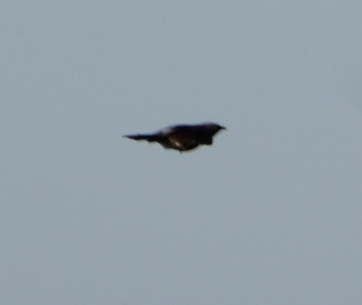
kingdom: Animalia
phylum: Chordata
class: Aves
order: Pelecaniformes
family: Ardeidae
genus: Butorides
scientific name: Butorides striata
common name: Striated heron
